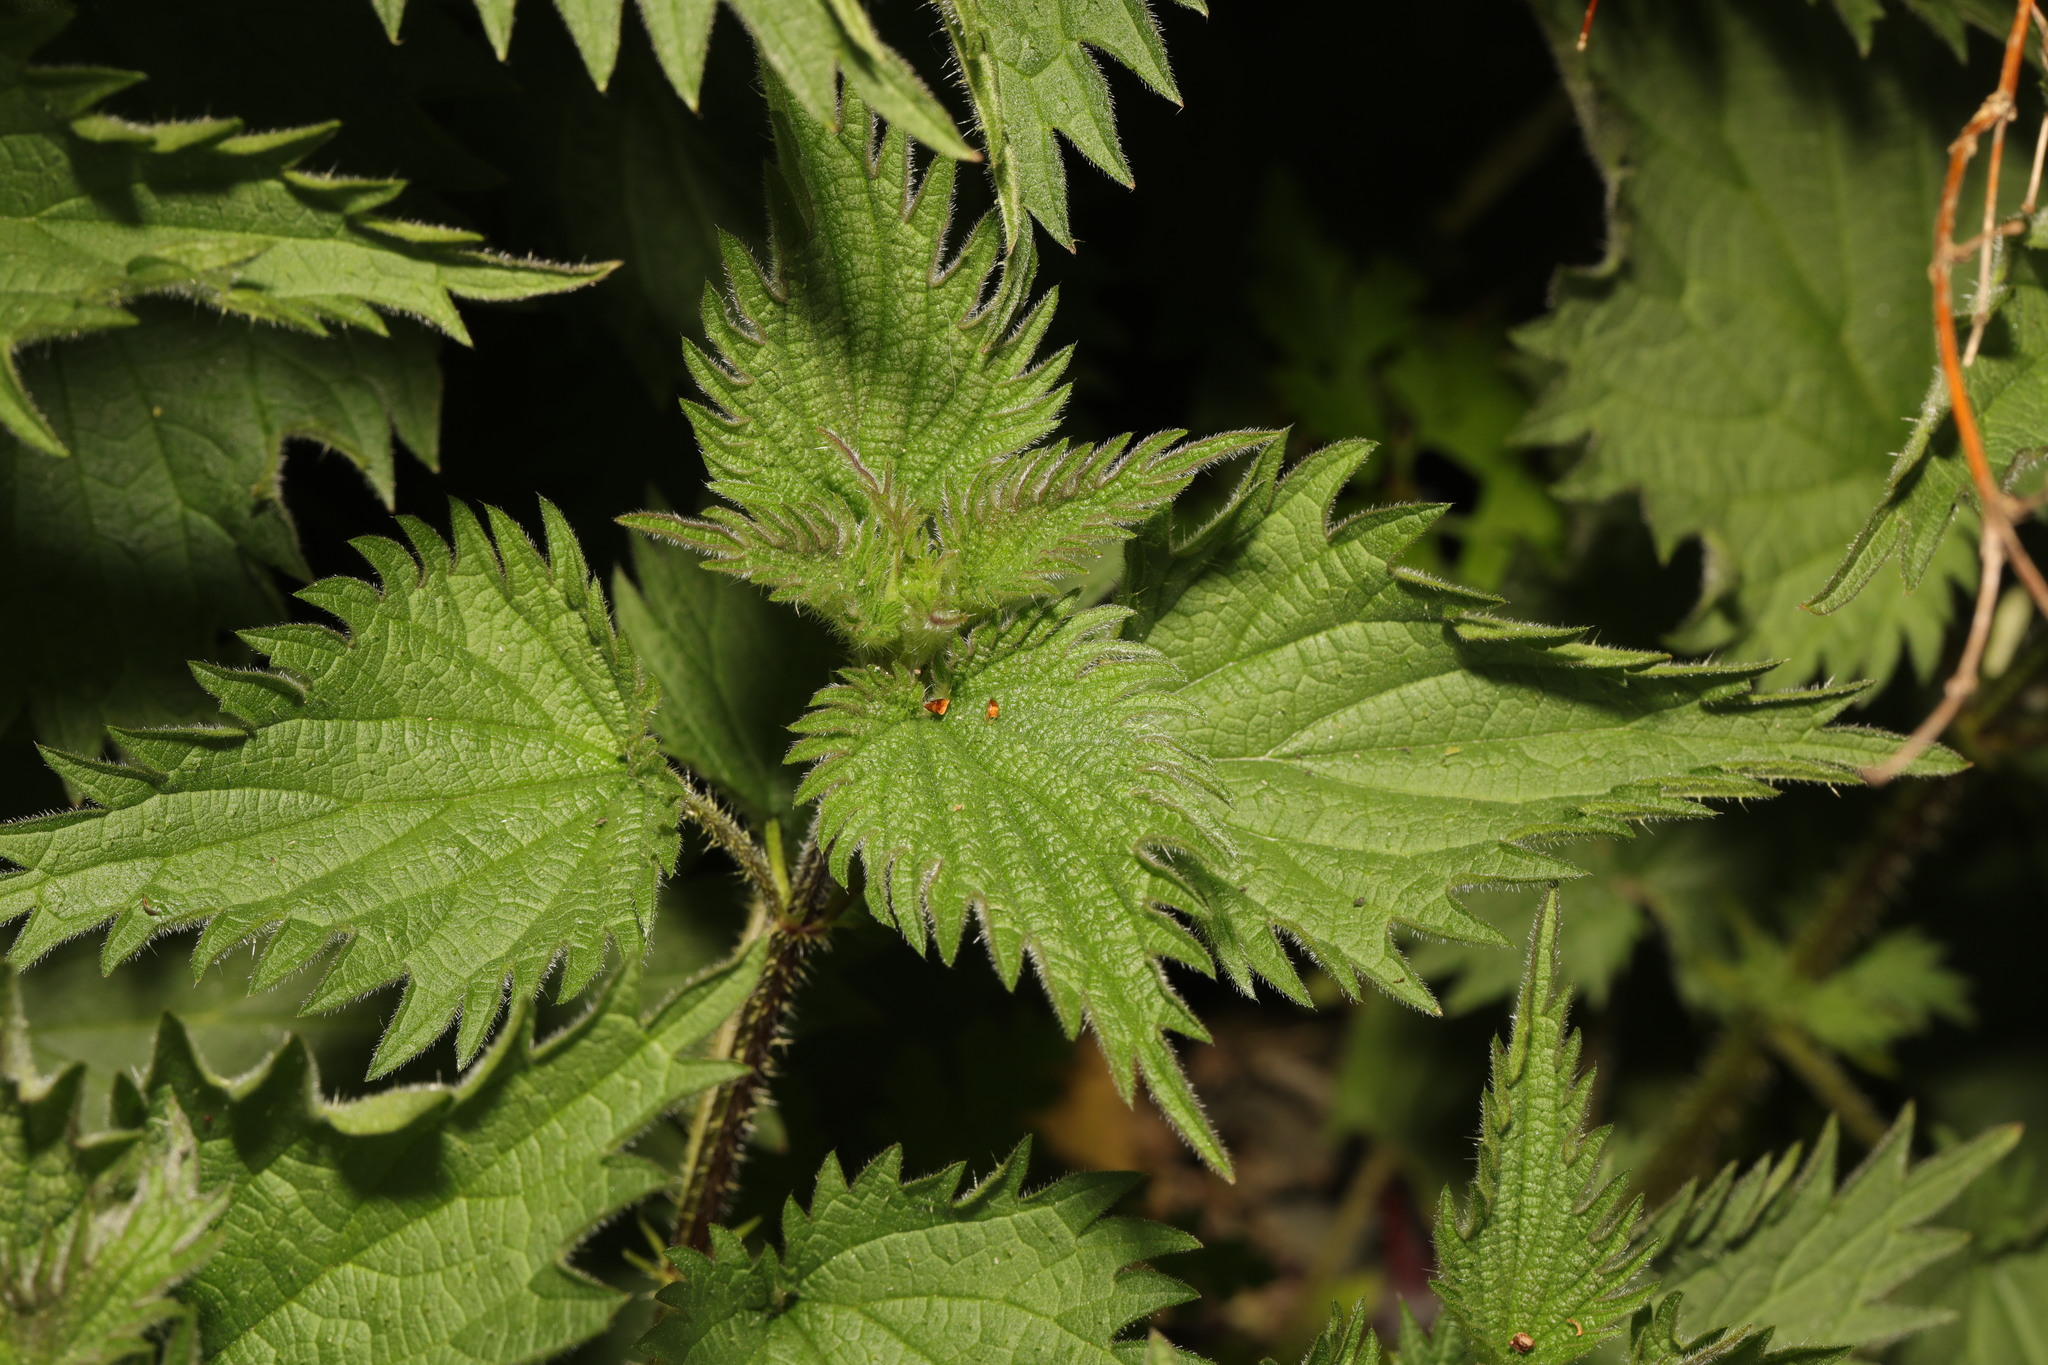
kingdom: Plantae
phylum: Tracheophyta
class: Magnoliopsida
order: Rosales
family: Urticaceae
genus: Urtica
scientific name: Urtica dioica
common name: Common nettle
